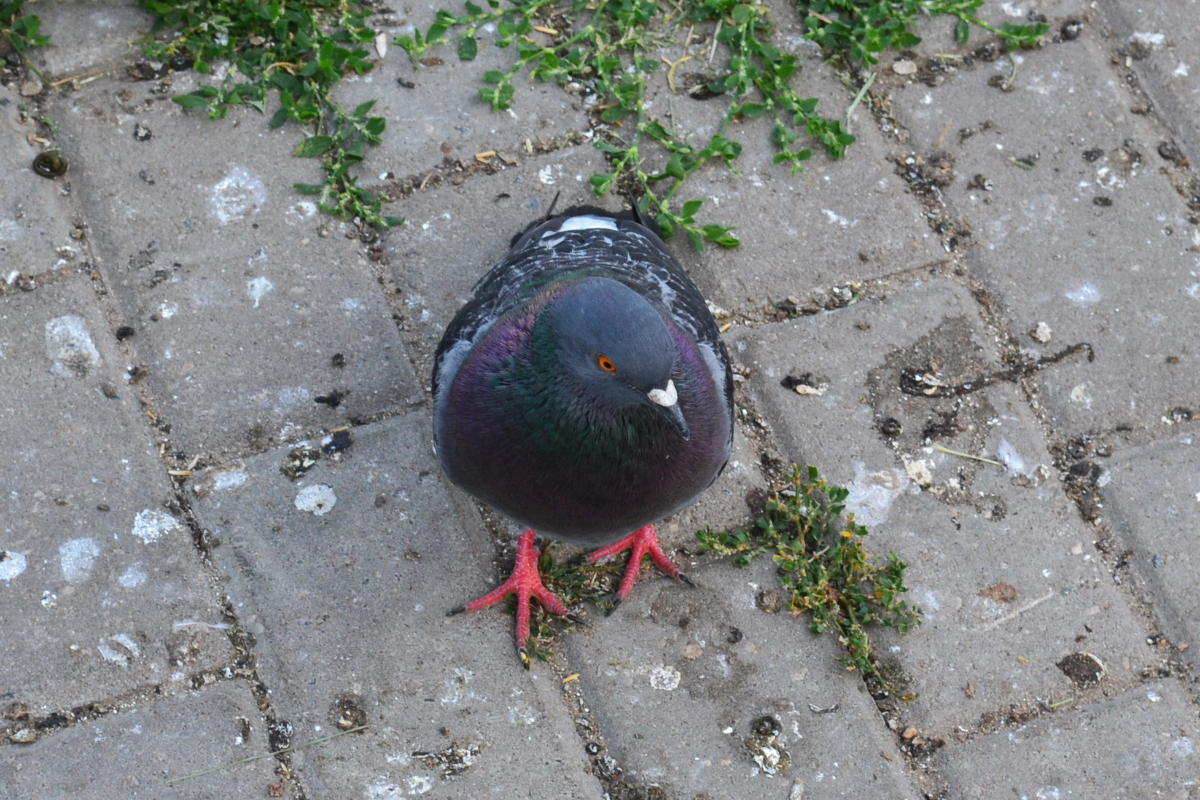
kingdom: Animalia
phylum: Chordata
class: Aves
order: Columbiformes
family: Columbidae
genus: Columba
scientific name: Columba livia
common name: Rock pigeon
